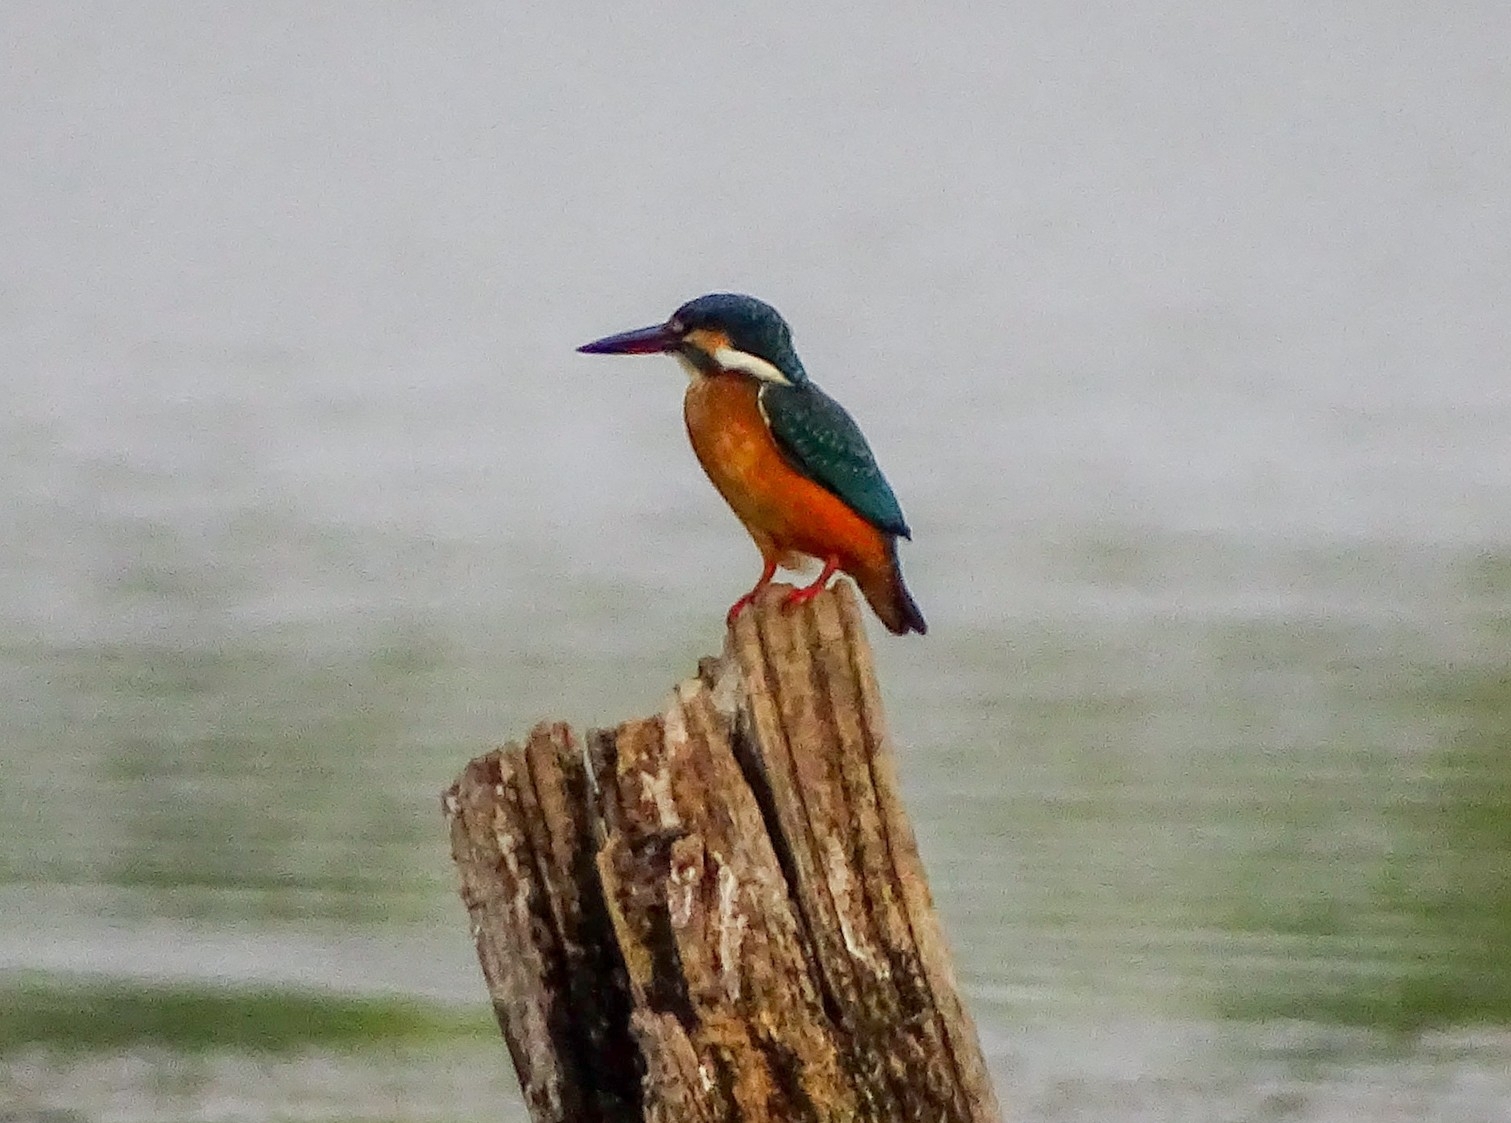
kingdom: Animalia
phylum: Chordata
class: Aves
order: Coraciiformes
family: Alcedinidae
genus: Alcedo
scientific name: Alcedo atthis
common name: Common kingfisher
